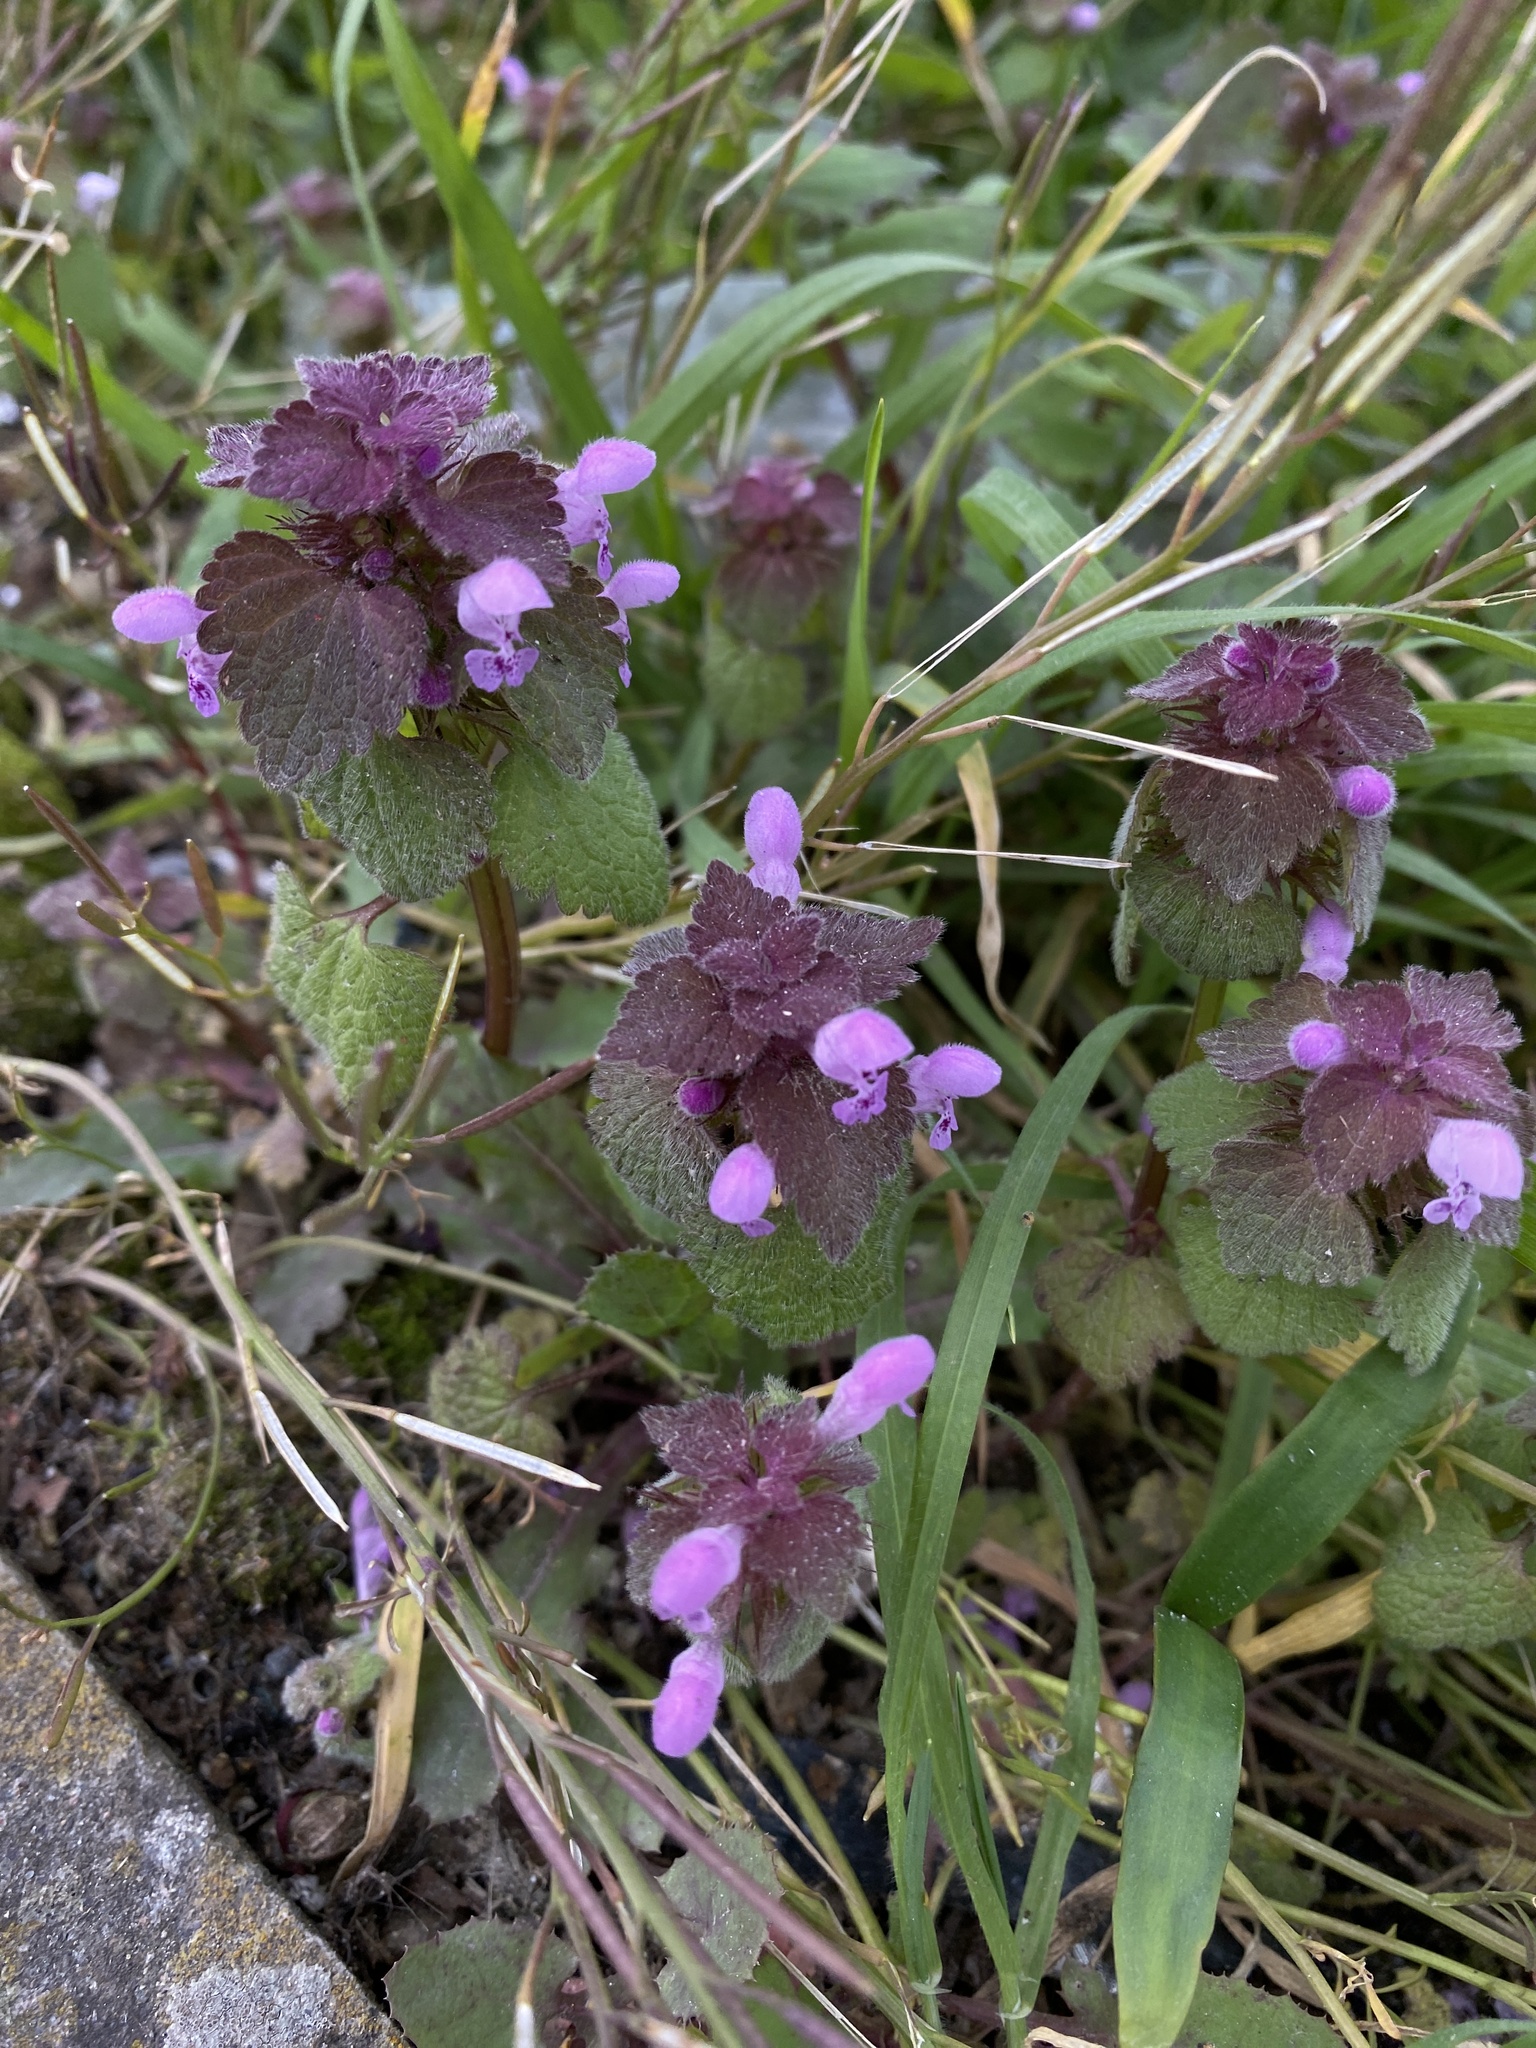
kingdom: Plantae
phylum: Tracheophyta
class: Magnoliopsida
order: Lamiales
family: Lamiaceae
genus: Lamium
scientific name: Lamium purpureum
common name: Red dead-nettle
